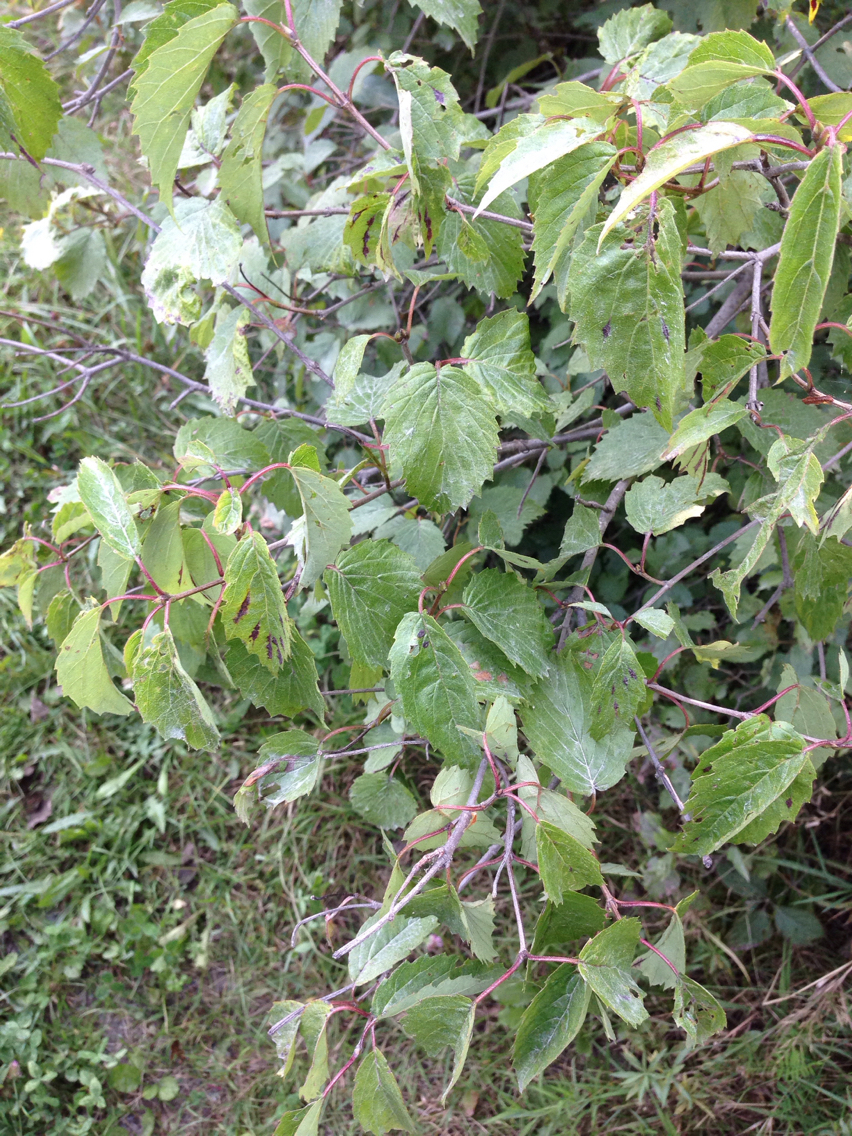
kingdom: Plantae
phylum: Tracheophyta
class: Magnoliopsida
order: Dipsacales
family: Viburnaceae
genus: Viburnum
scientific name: Viburnum recognitum
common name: Northern arrow-wood
